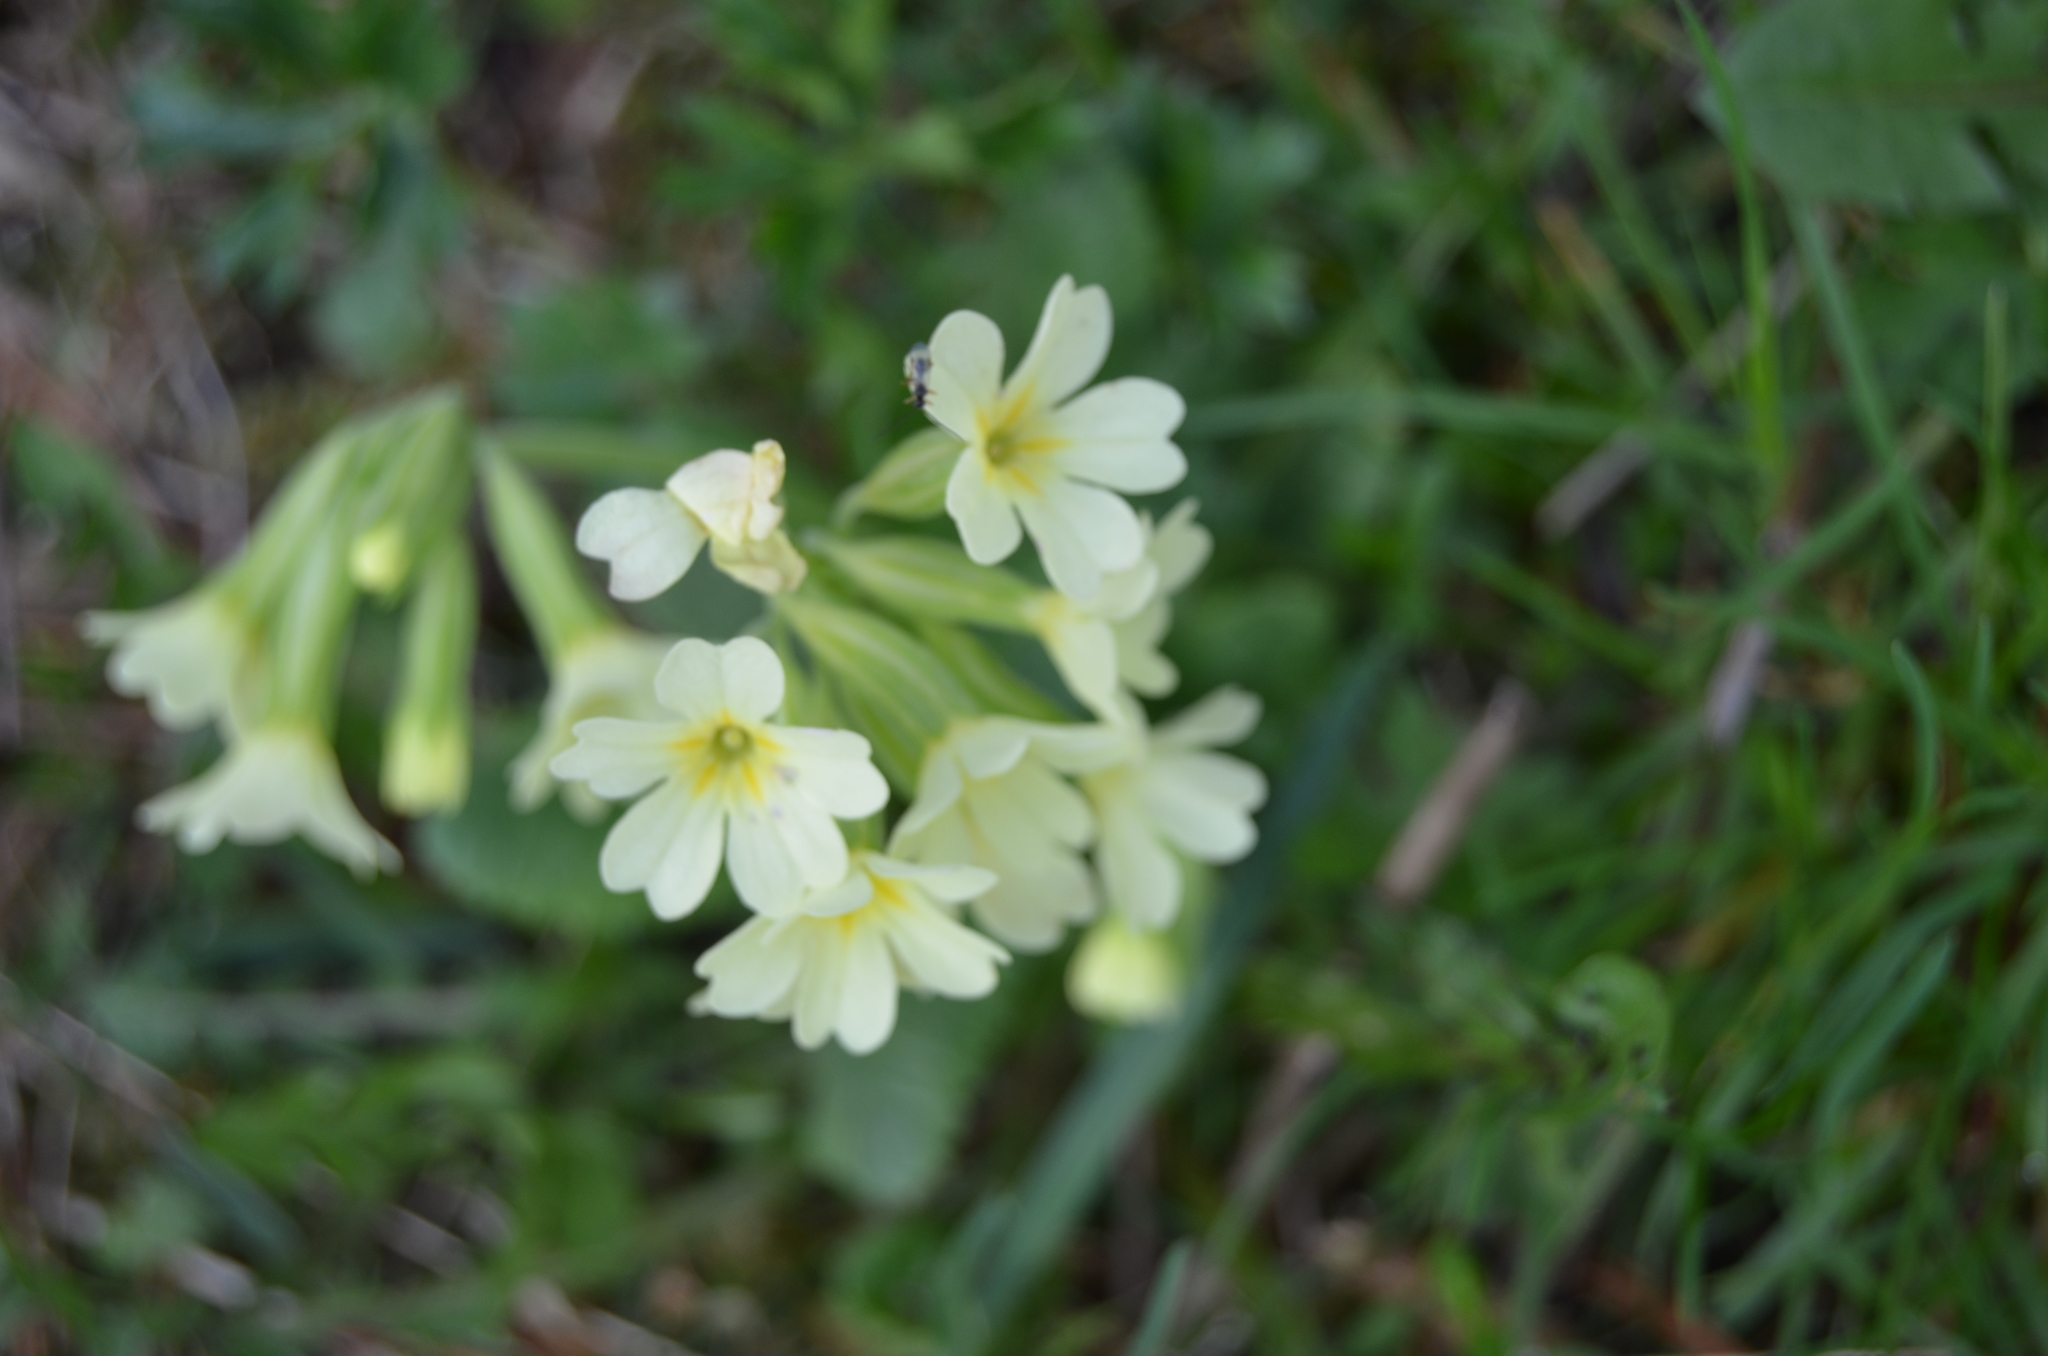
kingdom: Plantae
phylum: Tracheophyta
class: Magnoliopsida
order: Ericales
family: Primulaceae
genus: Primula
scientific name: Primula intricata
